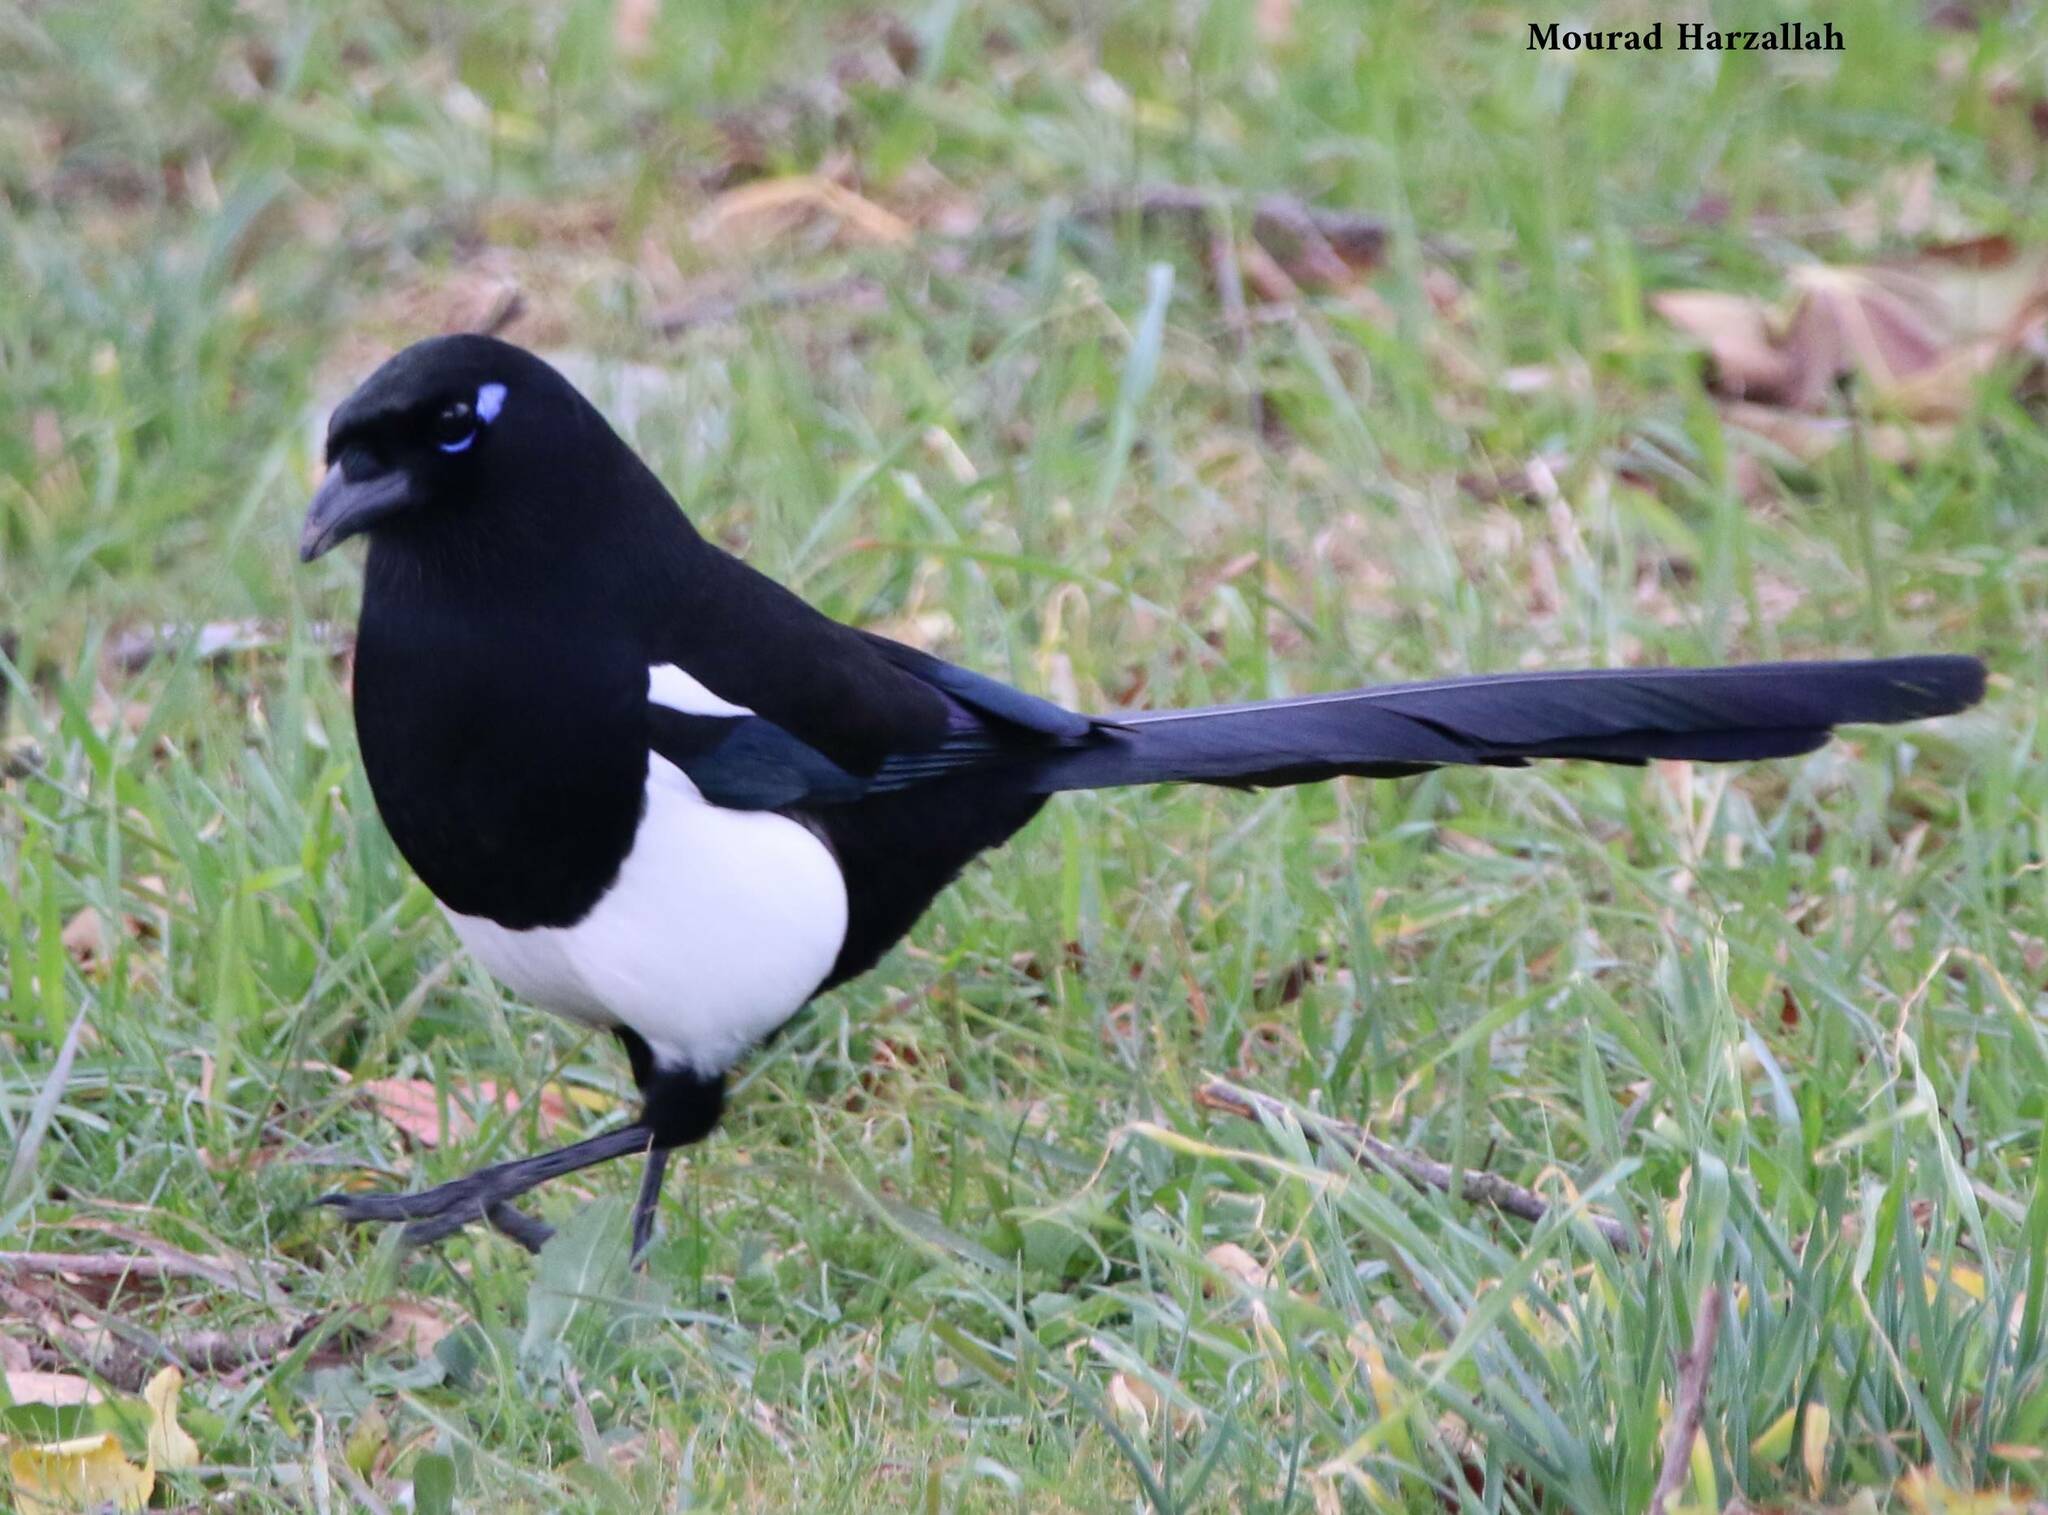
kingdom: Animalia
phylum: Chordata
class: Aves
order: Passeriformes
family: Corvidae
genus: Pica
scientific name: Pica mauritanica
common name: Maghreb magpie
